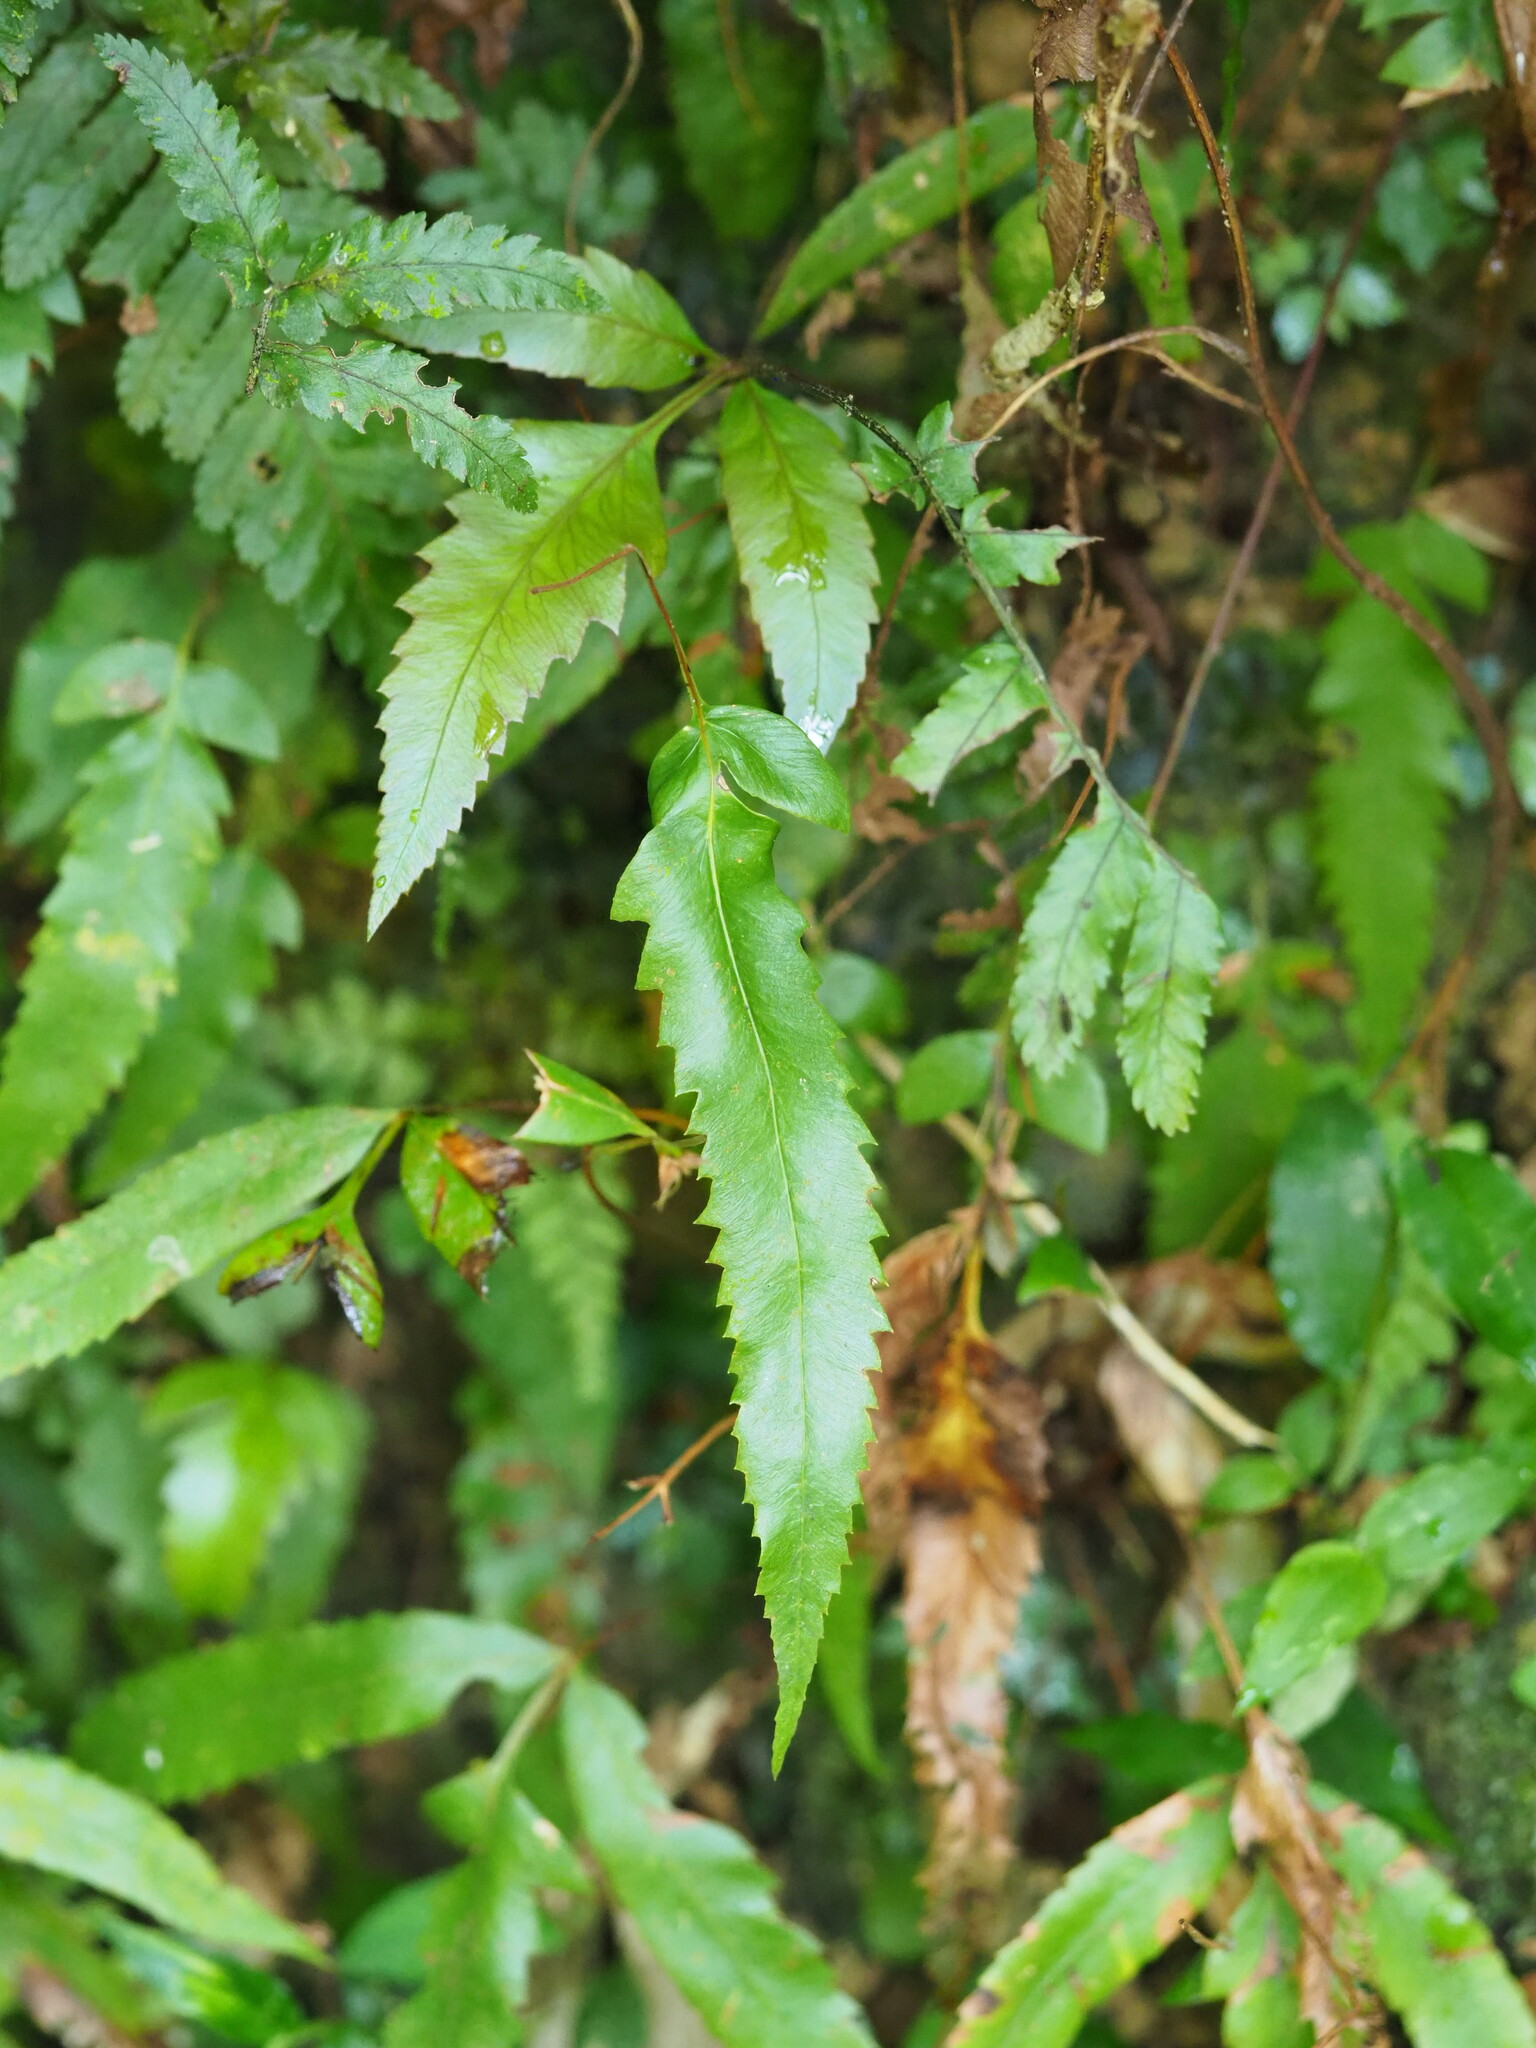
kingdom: Plantae
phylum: Tracheophyta
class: Polypodiopsida
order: Osmundales
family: Osmundaceae
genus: Plenasium
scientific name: Plenasium banksiifolium
